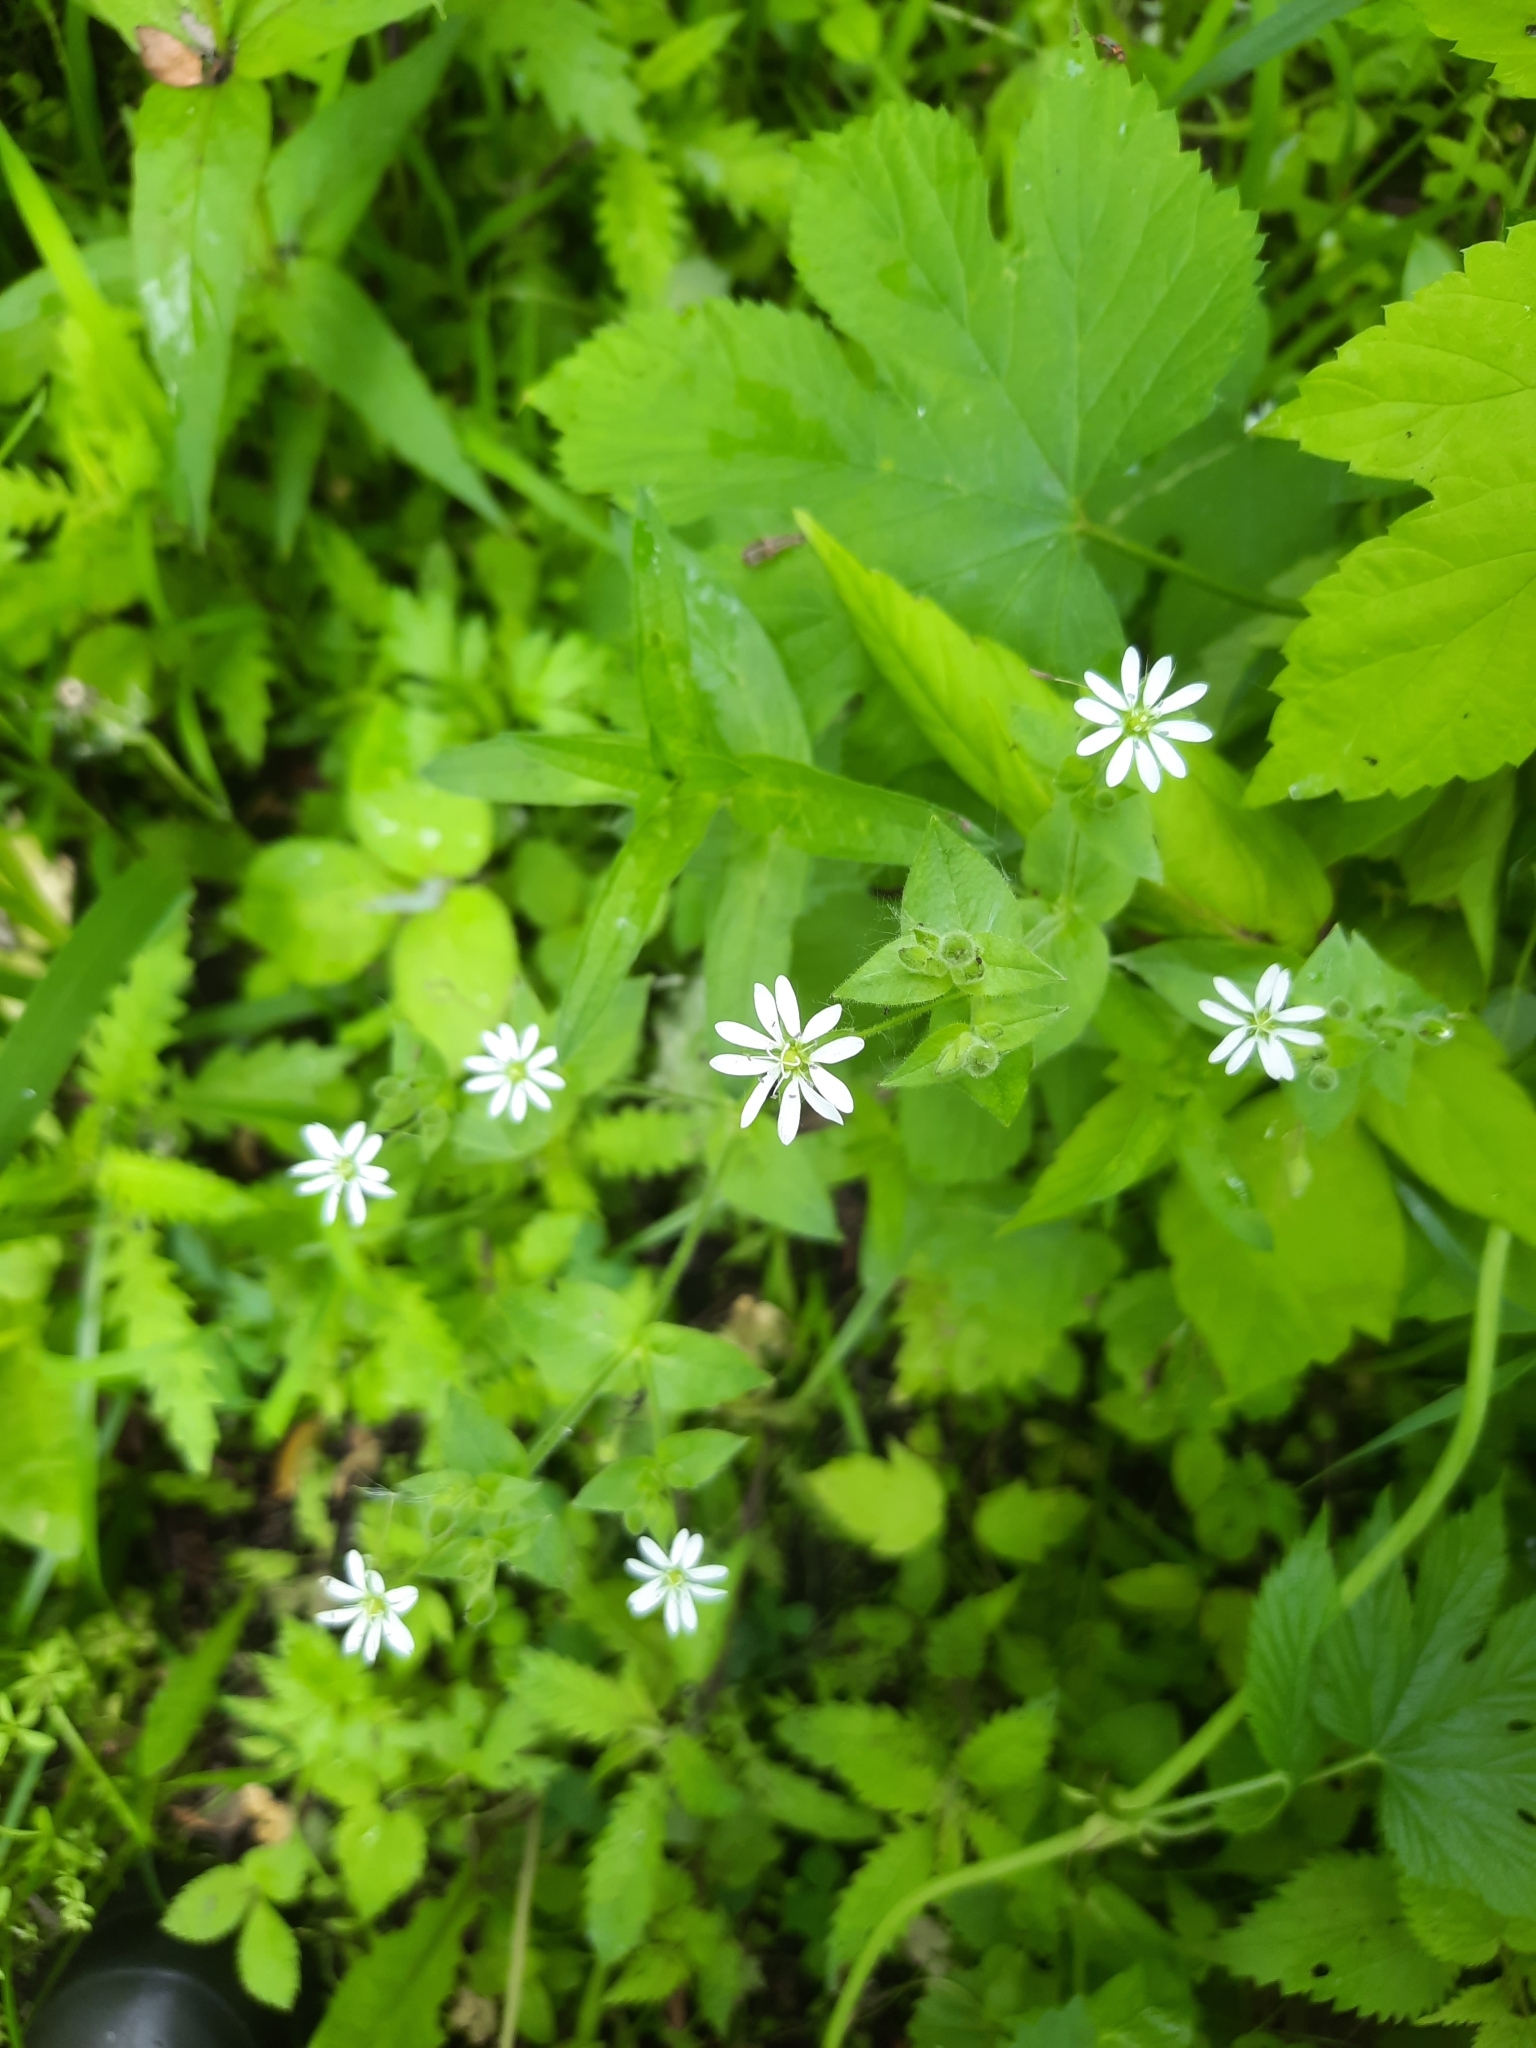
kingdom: Plantae
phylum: Tracheophyta
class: Magnoliopsida
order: Caryophyllales
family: Caryophyllaceae
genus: Stellaria
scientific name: Stellaria aquatica
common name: Water chickweed
